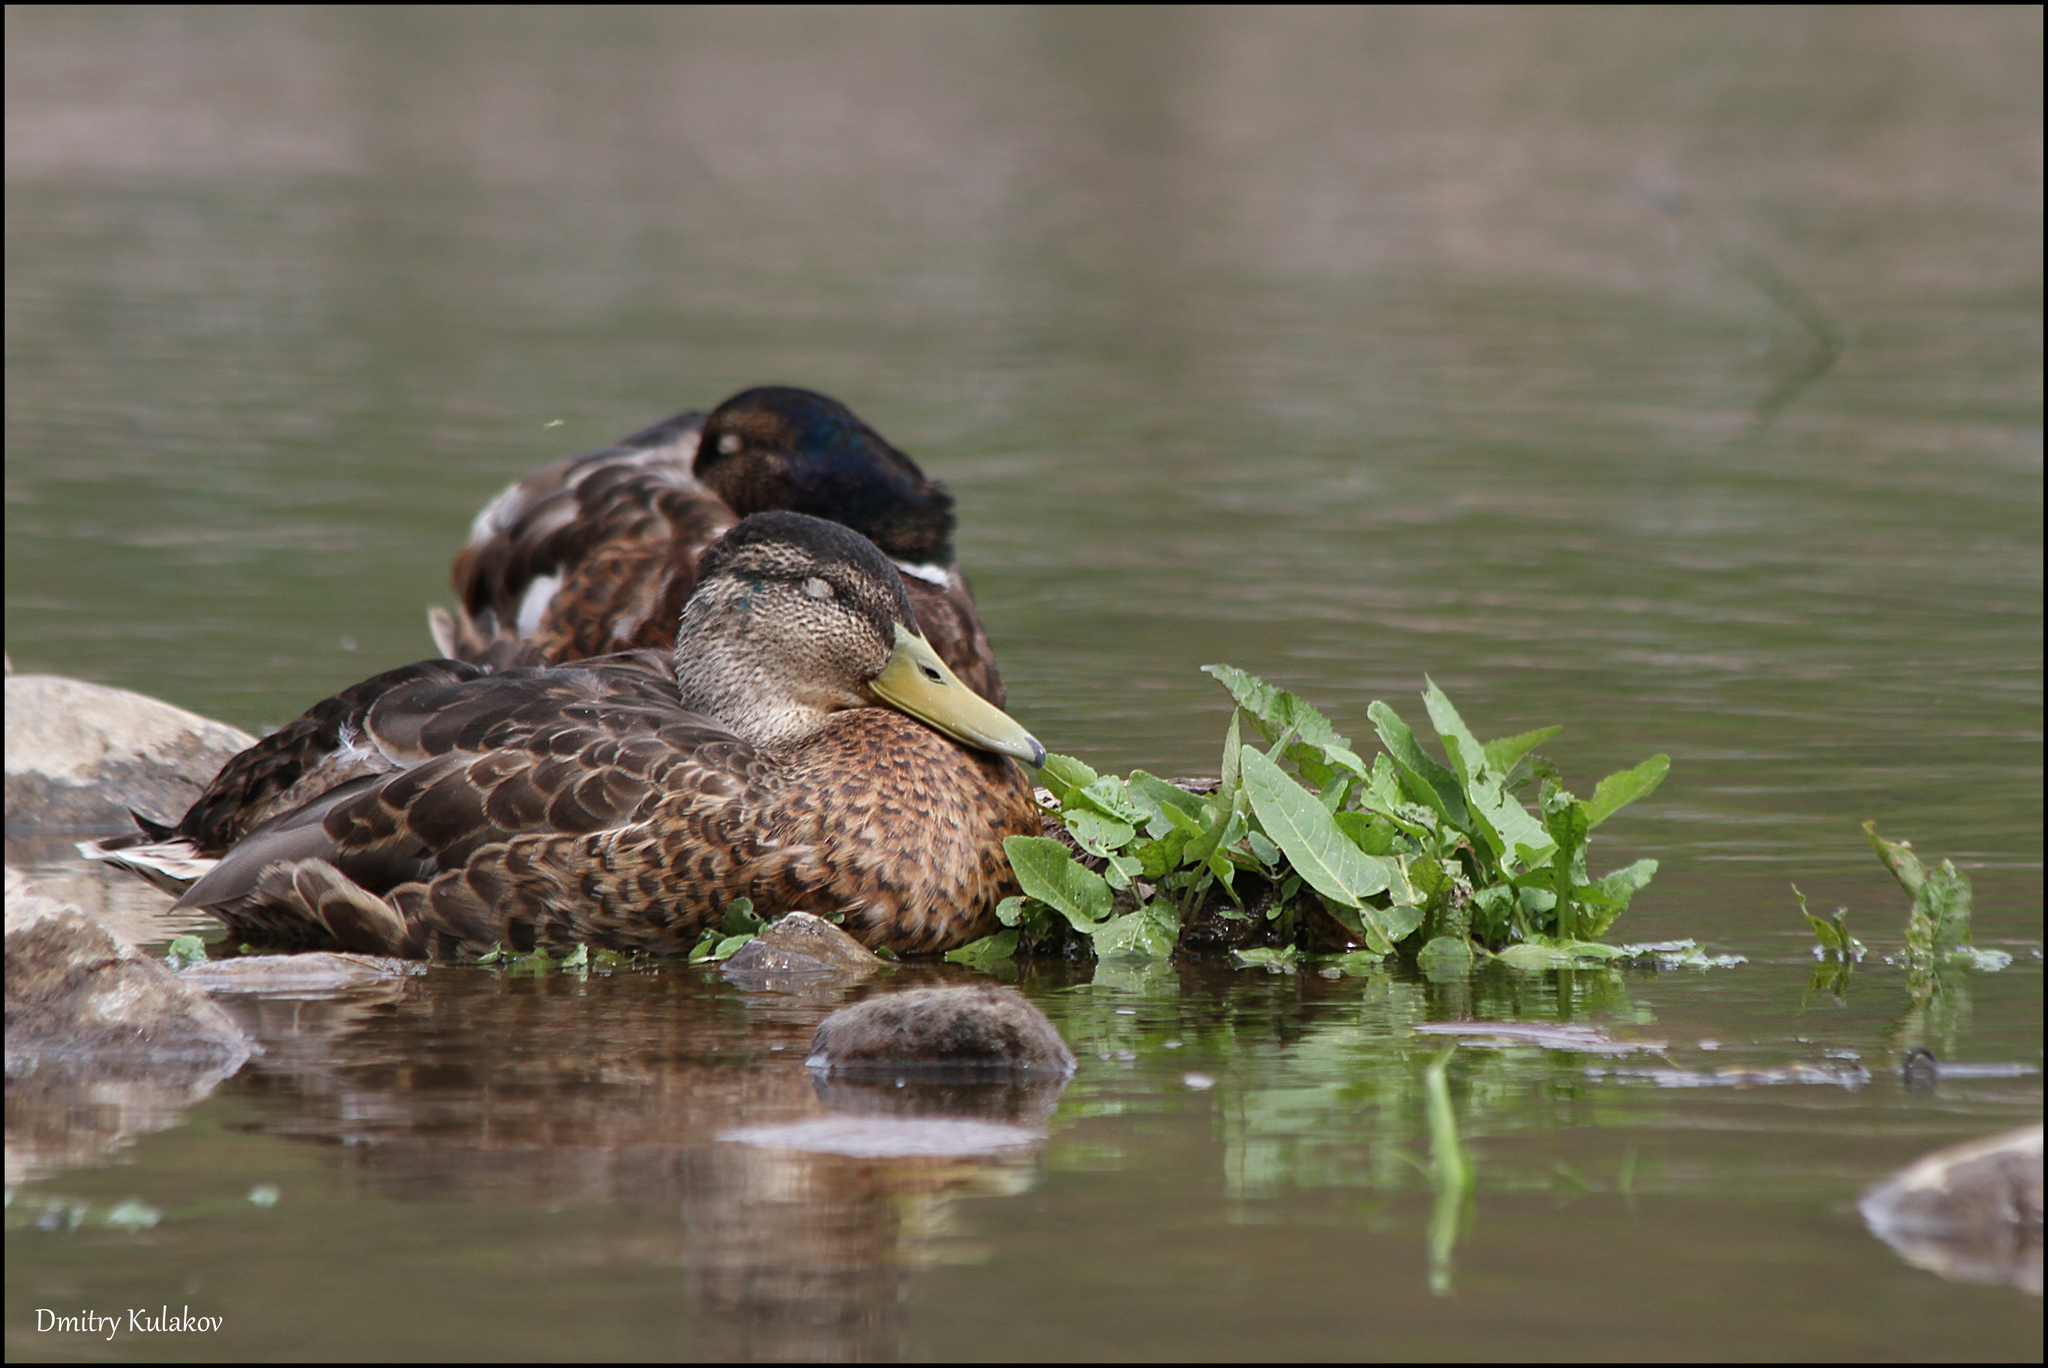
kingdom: Animalia
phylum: Chordata
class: Aves
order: Anseriformes
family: Anatidae
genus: Anas
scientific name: Anas platyrhynchos
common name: Mallard
